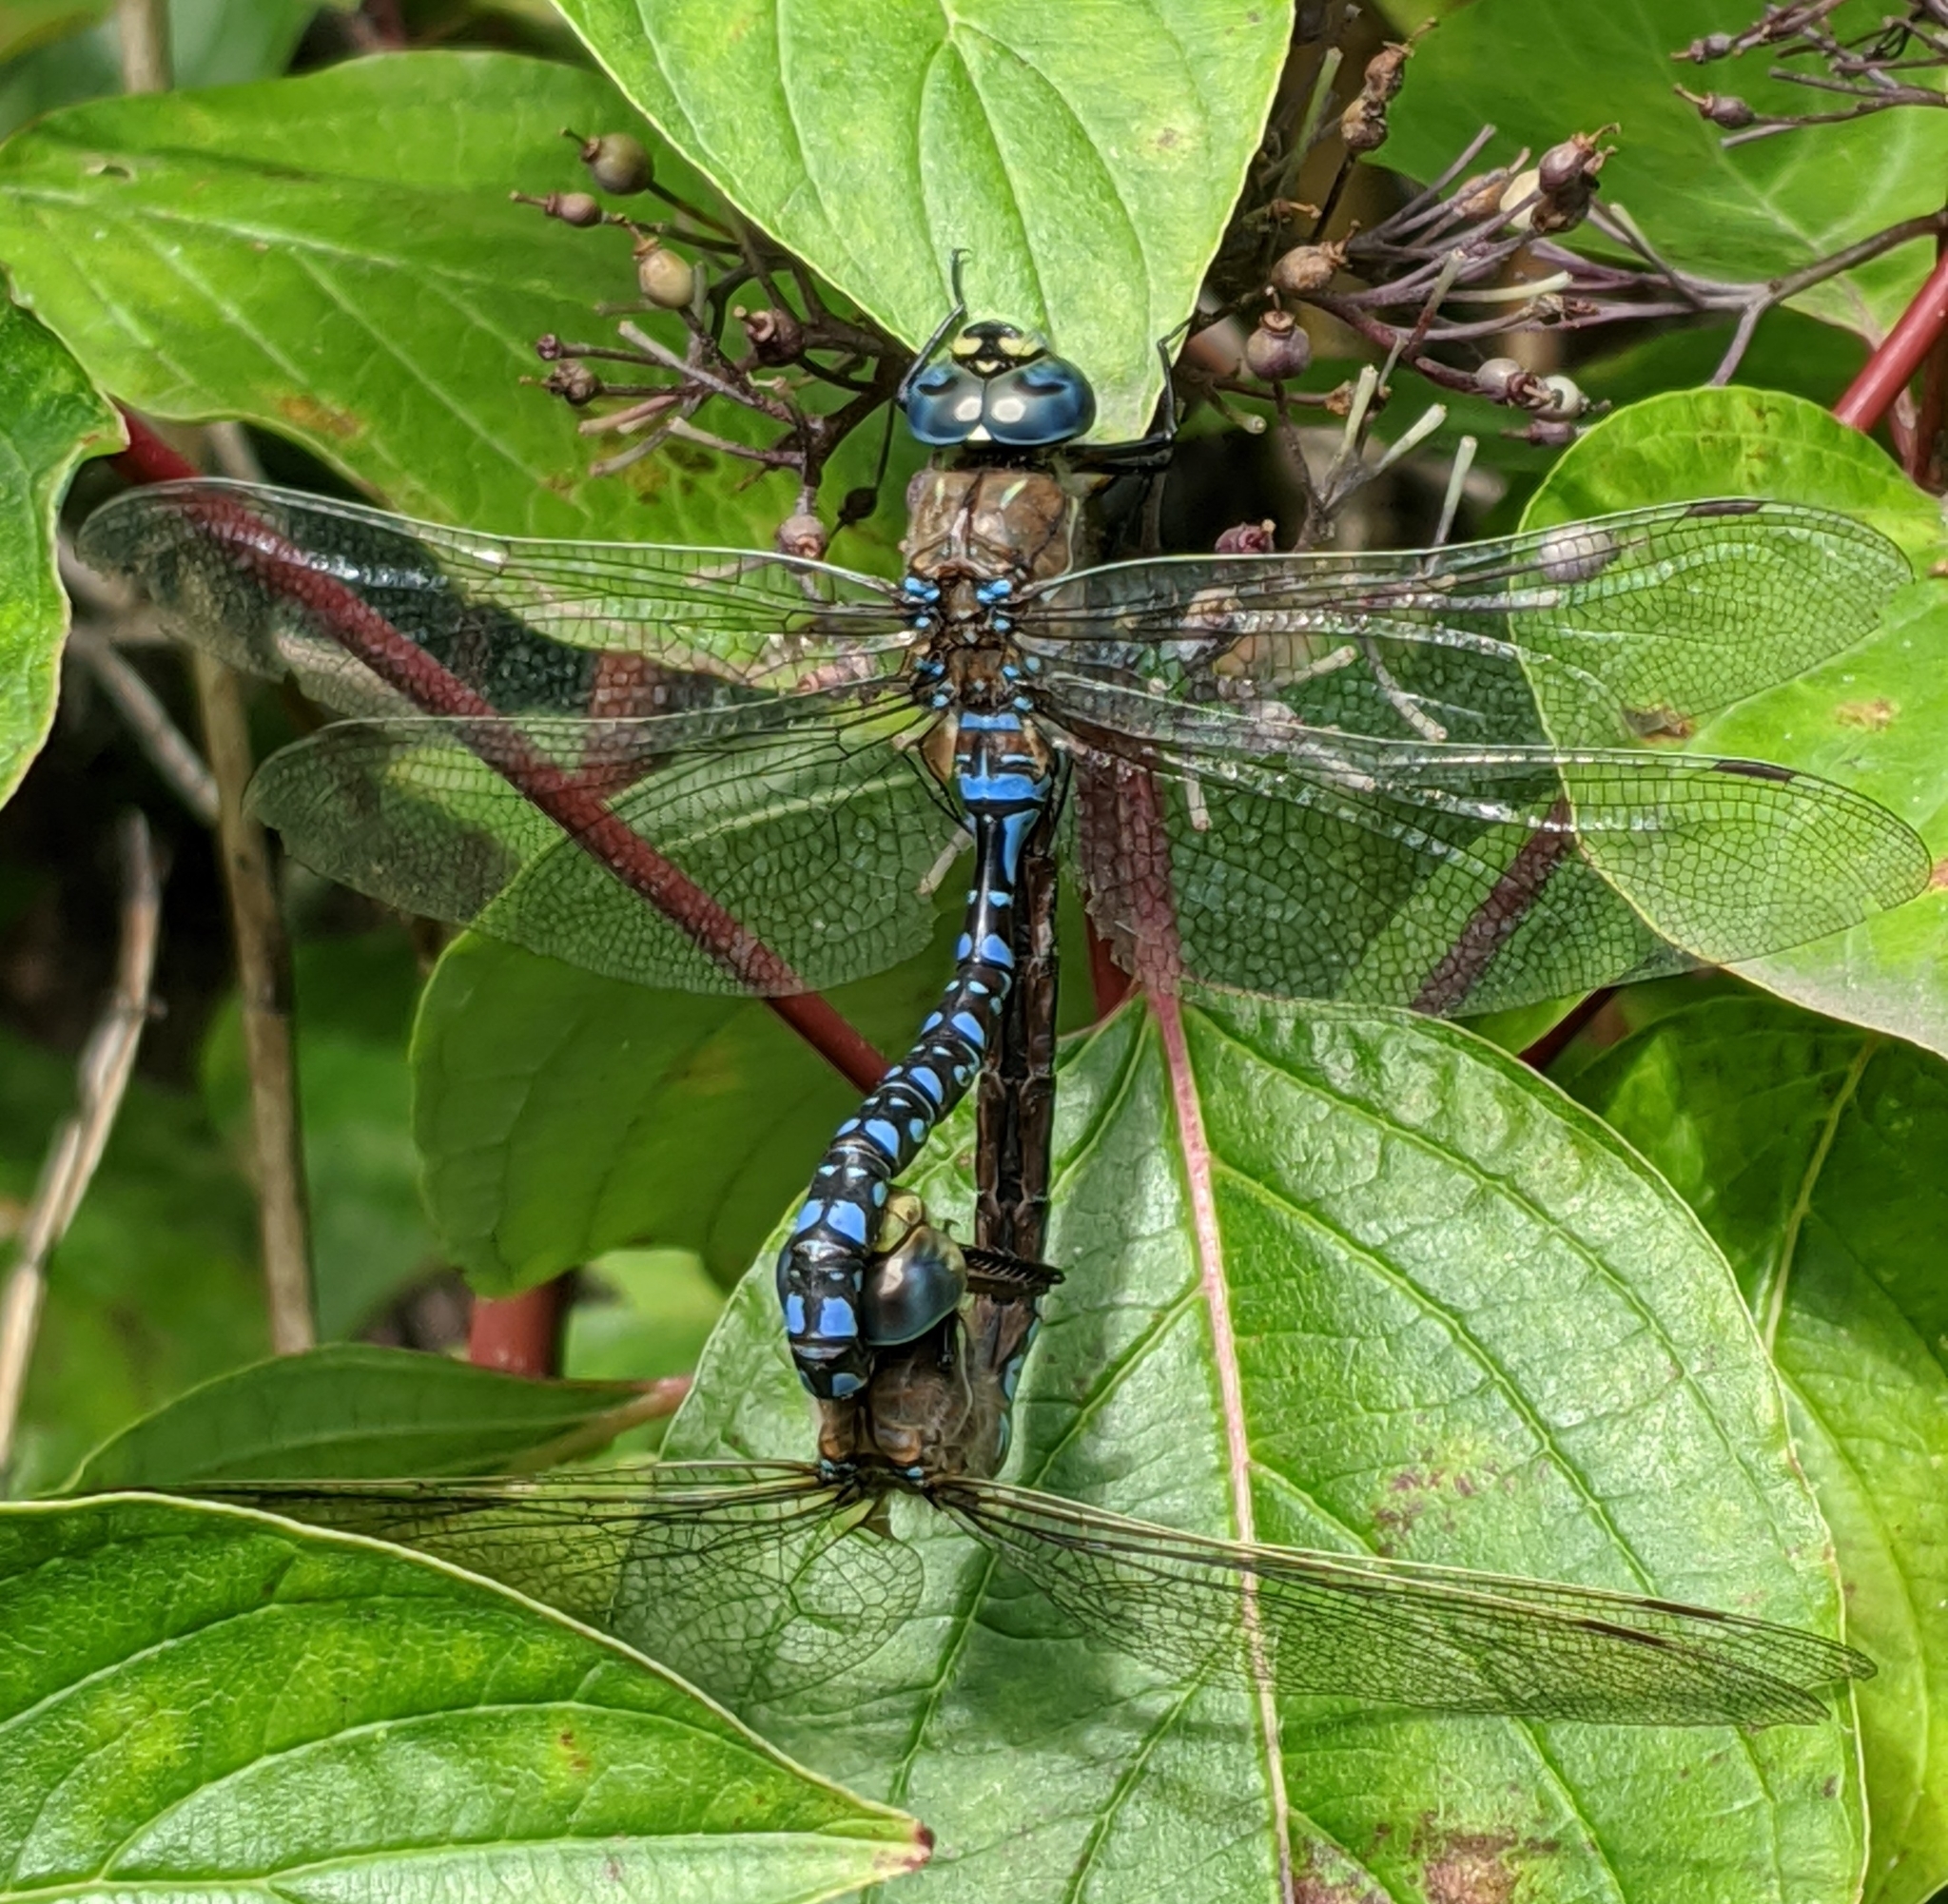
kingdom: Animalia
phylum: Arthropoda
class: Insecta
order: Odonata
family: Aeshnidae
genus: Aeshna
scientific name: Aeshna interrupta
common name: Variable darner
